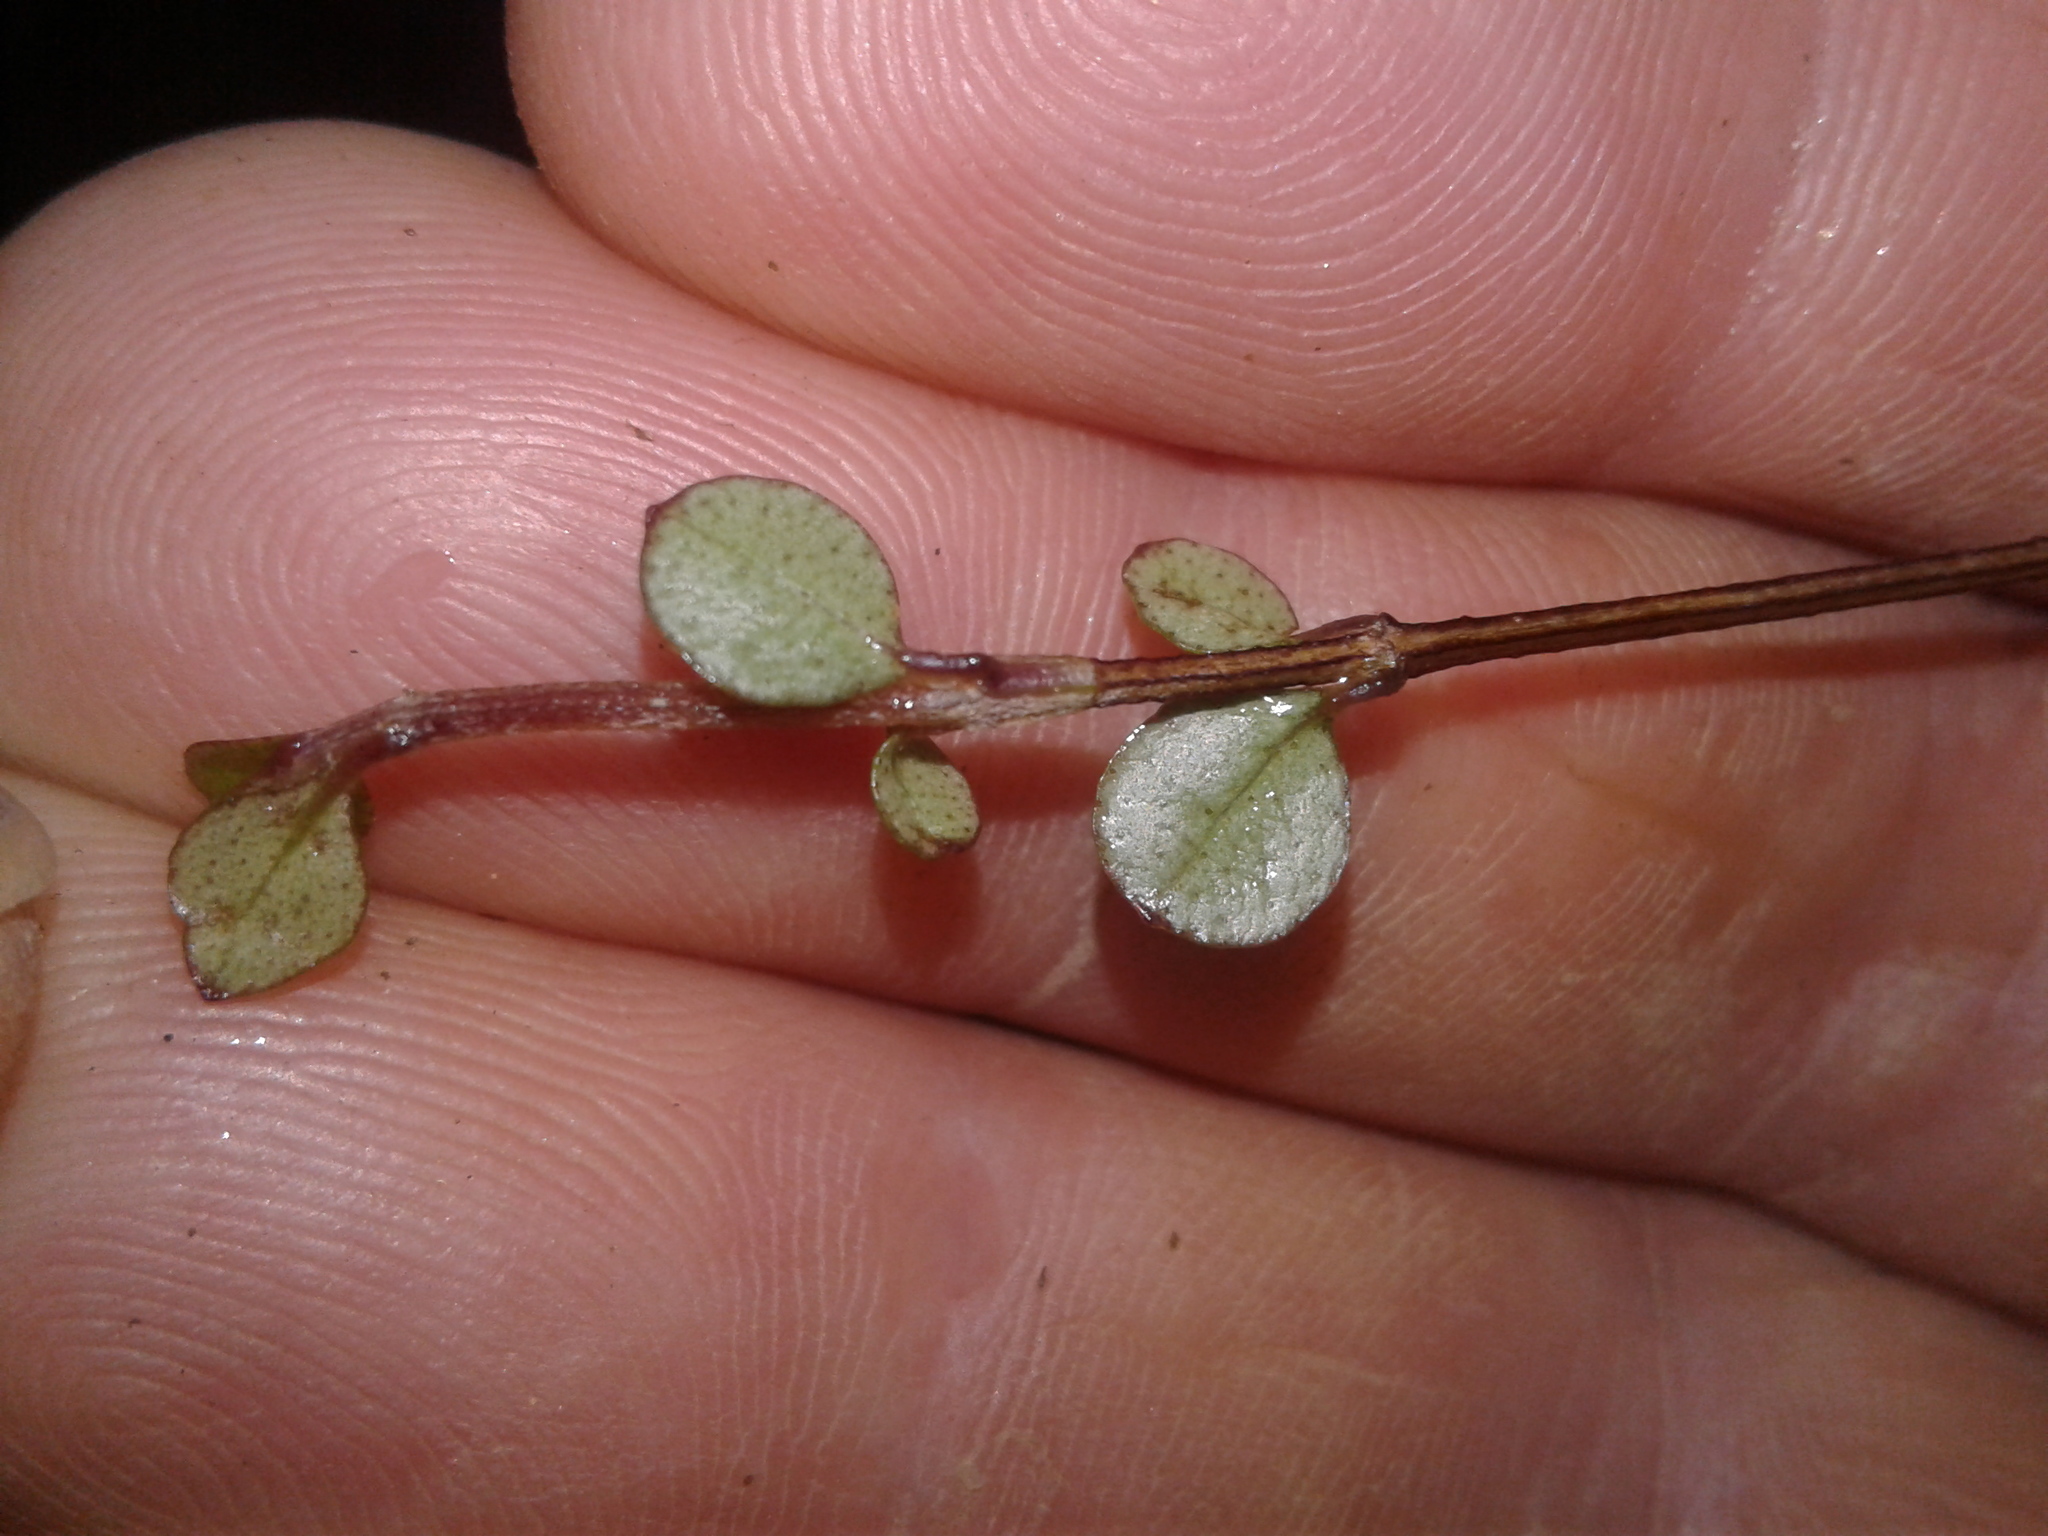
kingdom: Plantae
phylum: Tracheophyta
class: Magnoliopsida
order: Myrtales
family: Myrtaceae
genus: Neomyrtus
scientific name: Neomyrtus pedunculata
